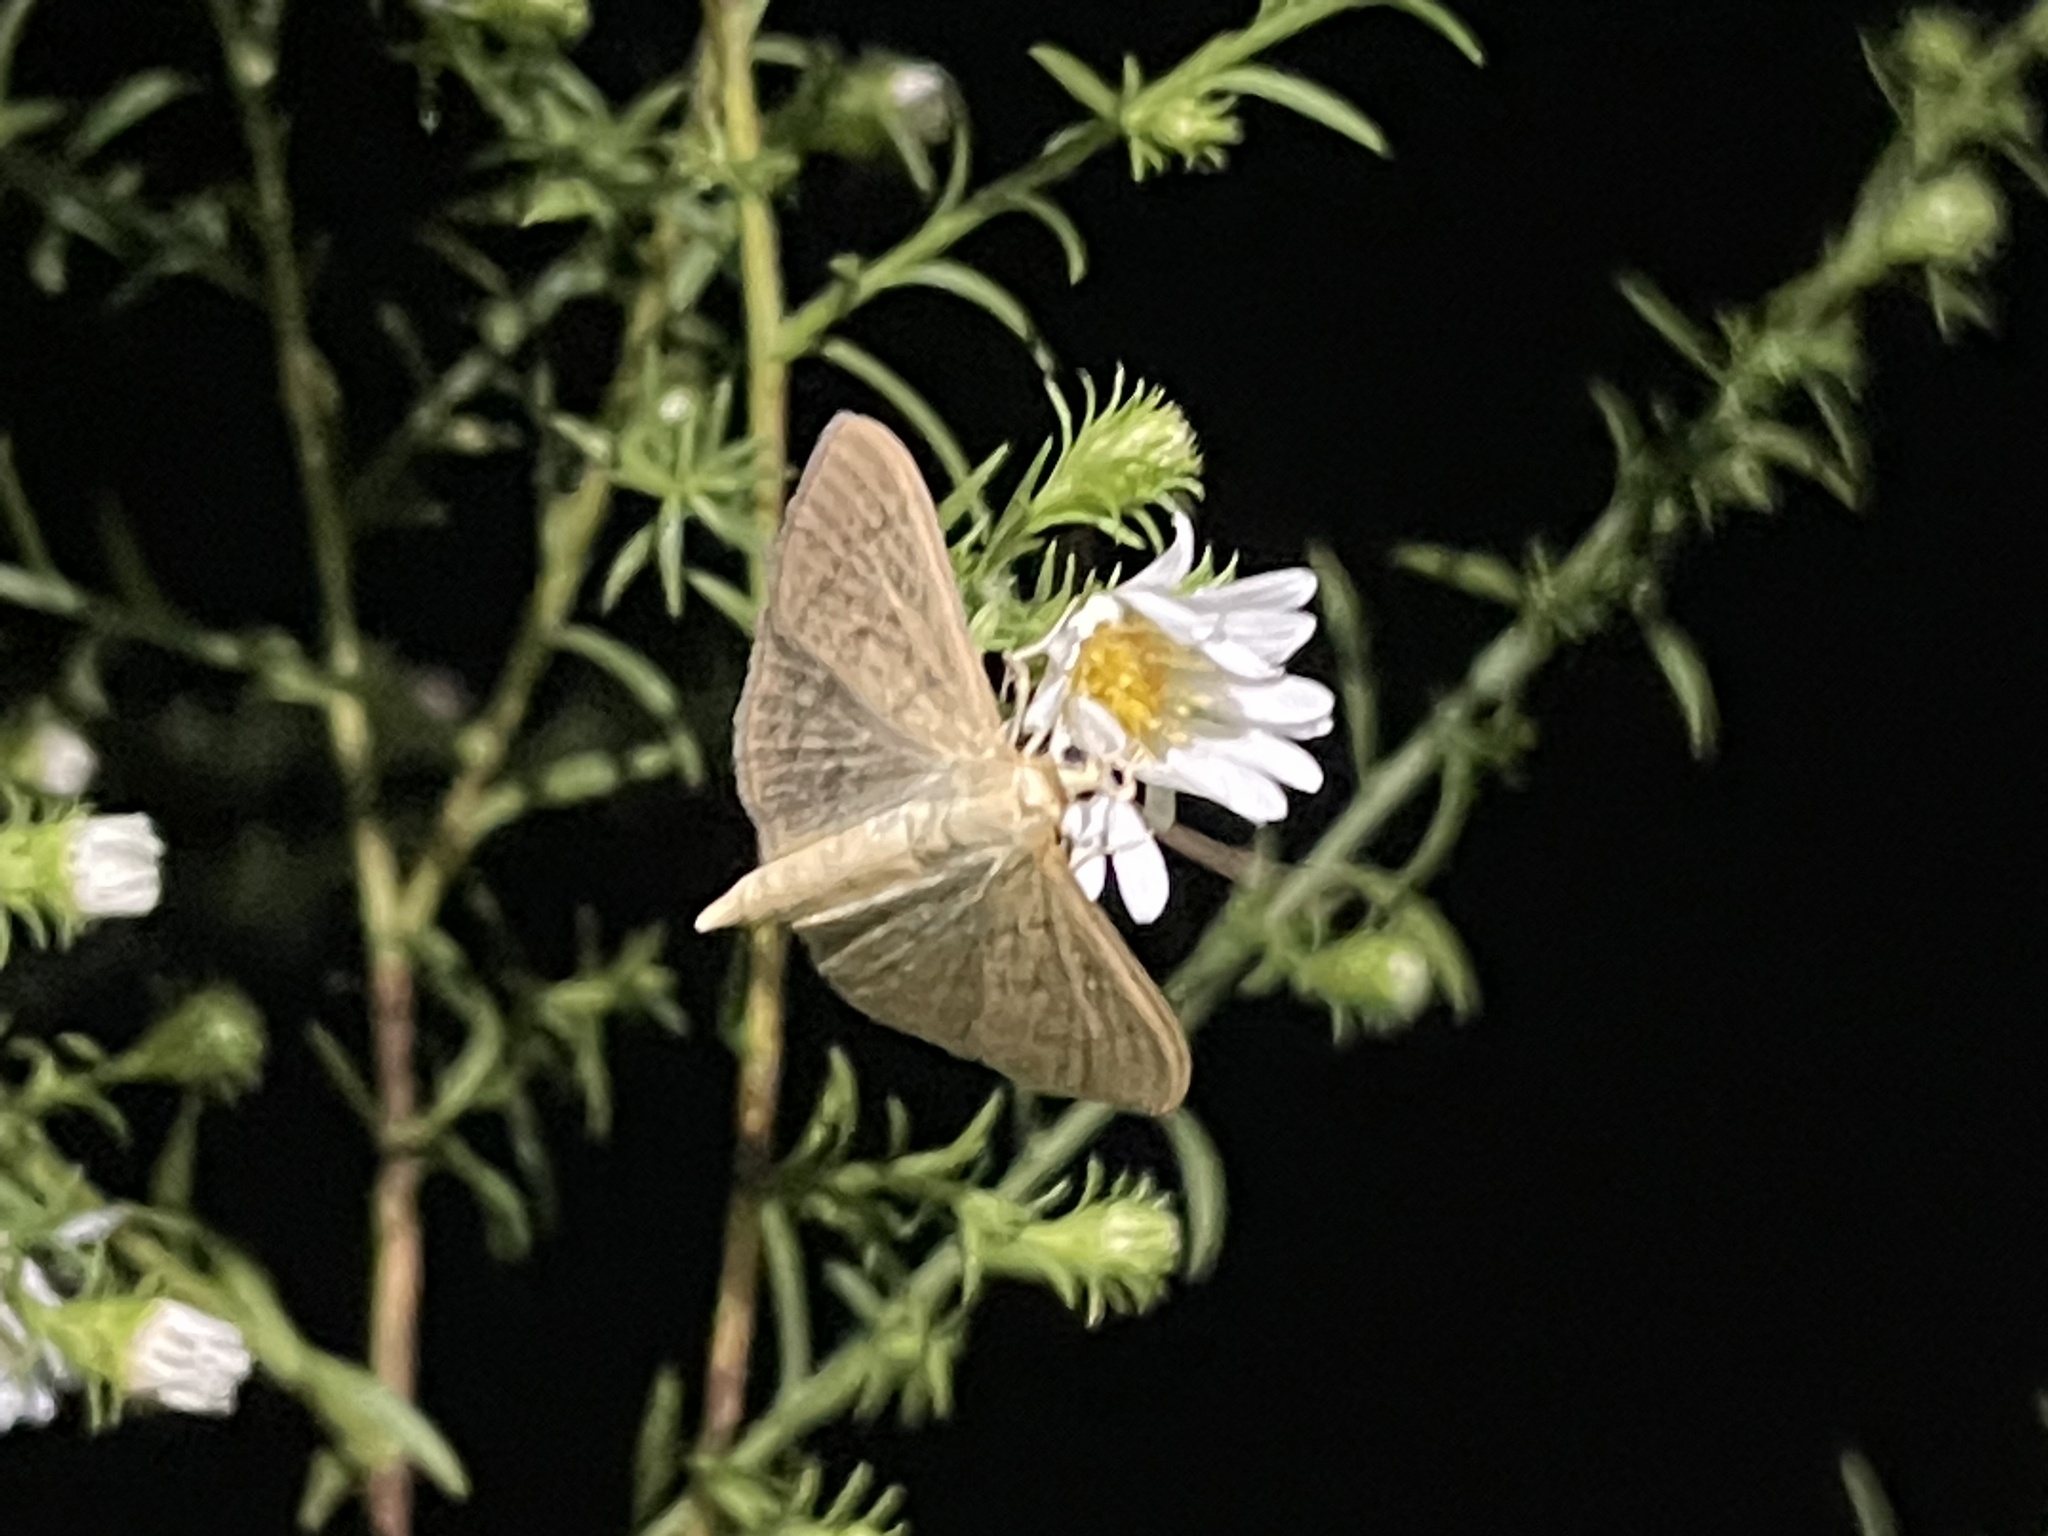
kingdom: Animalia
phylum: Arthropoda
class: Insecta
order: Lepidoptera
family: Geometridae
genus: Pleuroprucha
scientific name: Pleuroprucha insulsaria
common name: Common tan wave
